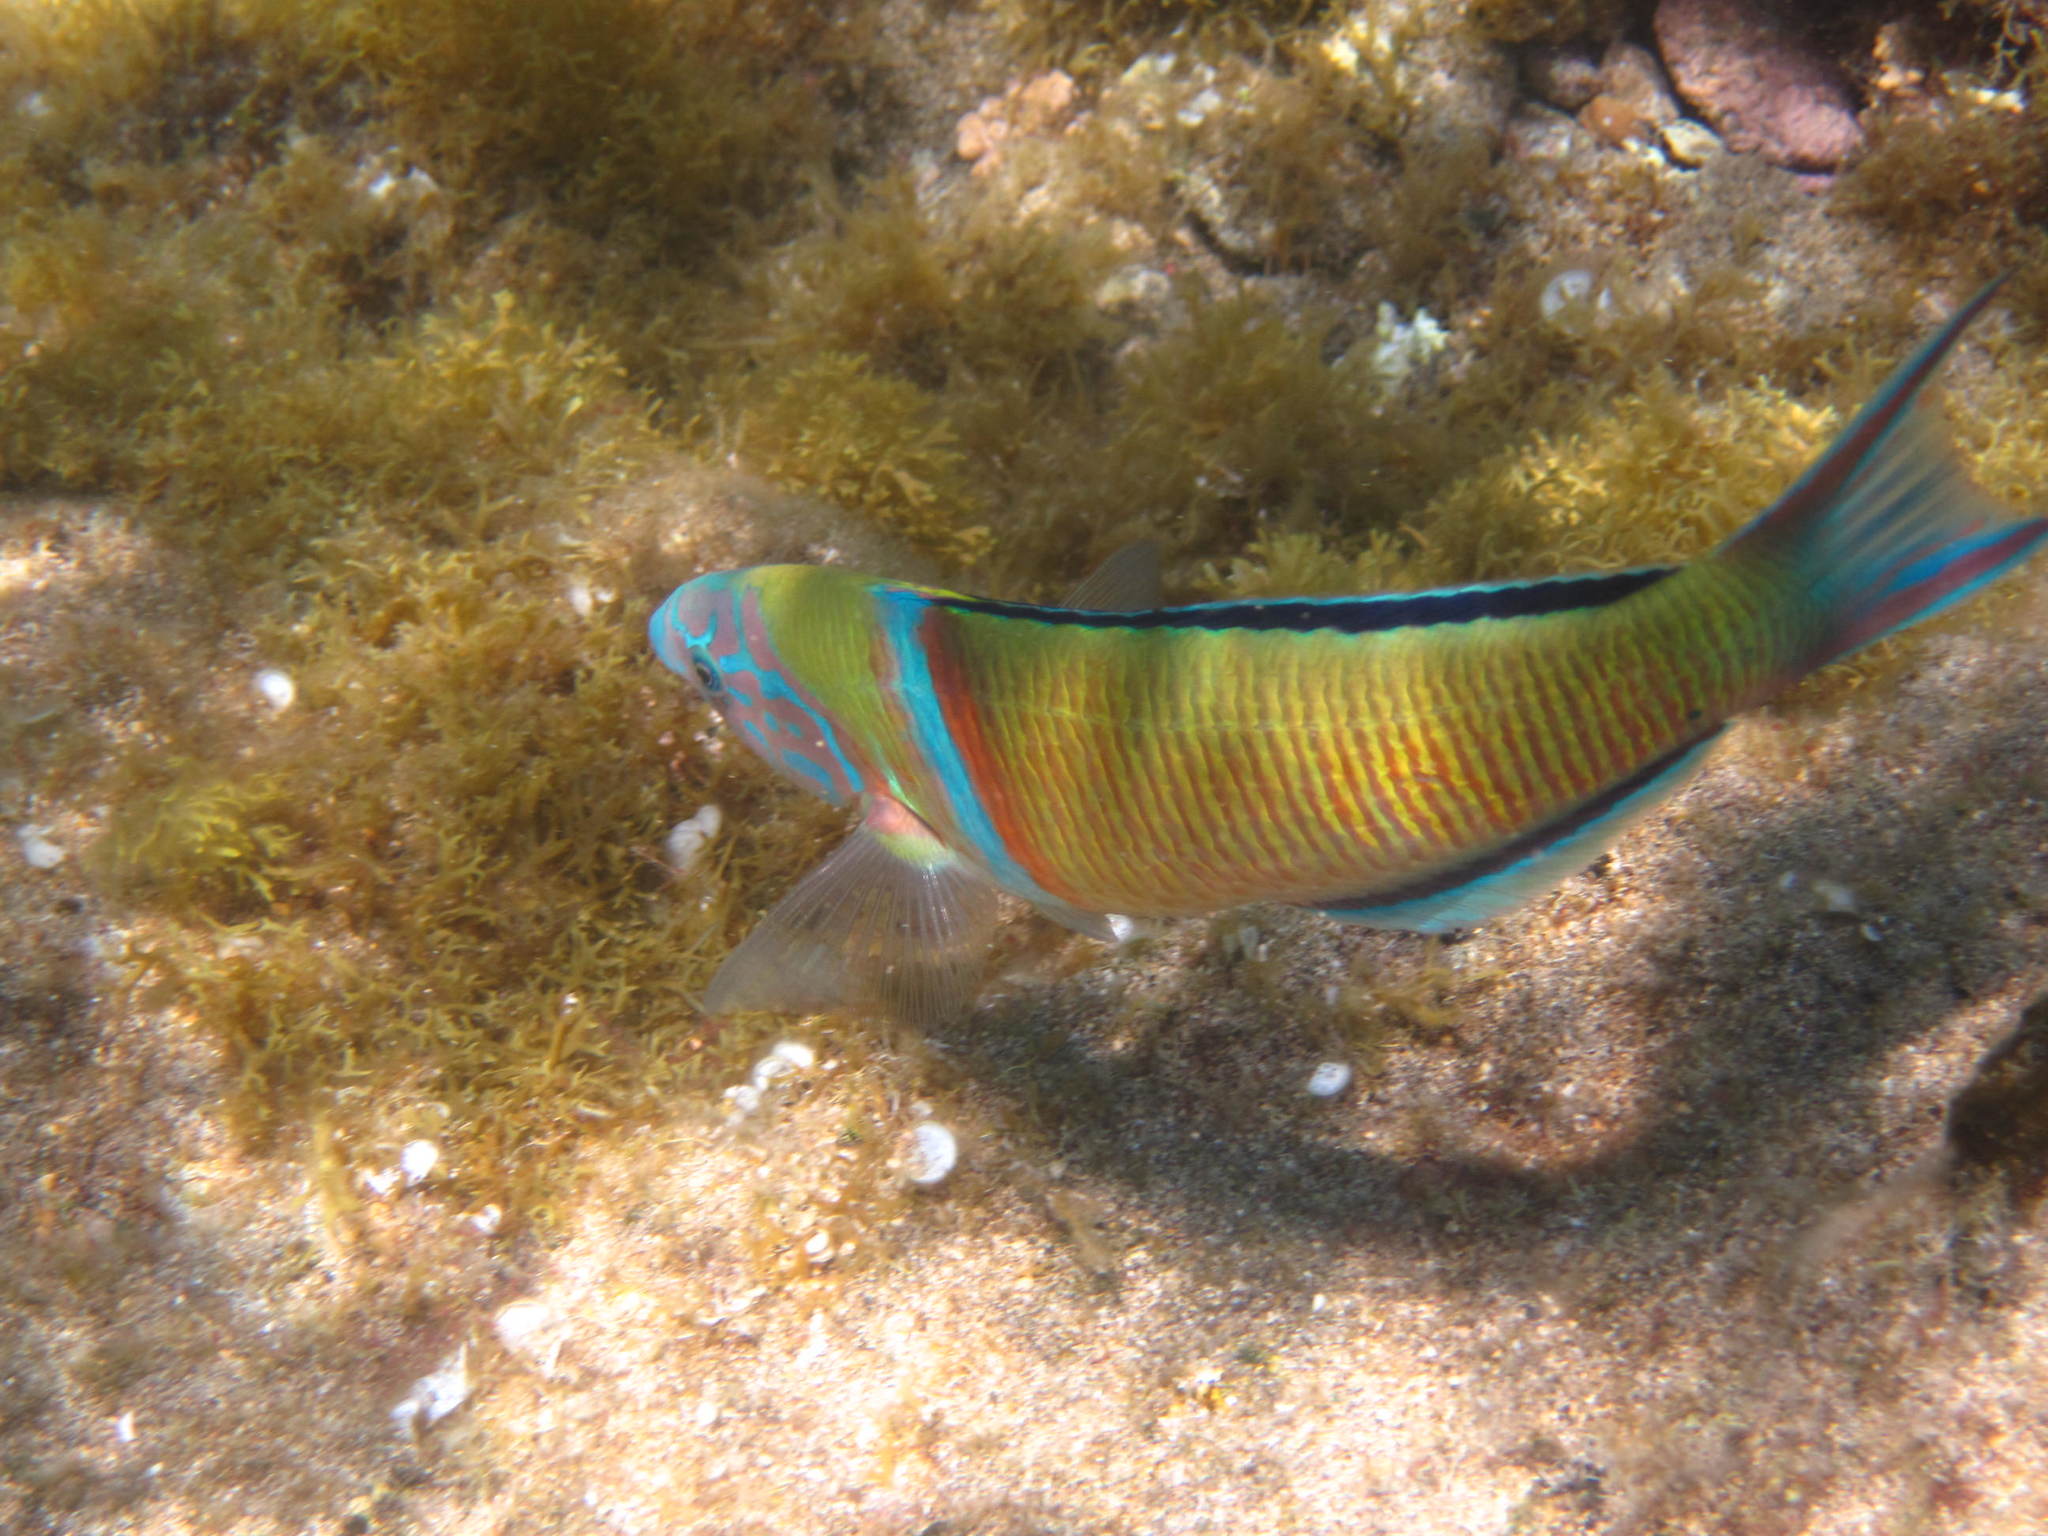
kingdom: Animalia
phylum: Chordata
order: Perciformes
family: Labridae
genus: Thalassoma
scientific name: Thalassoma pavo
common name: Ornate wrasse
